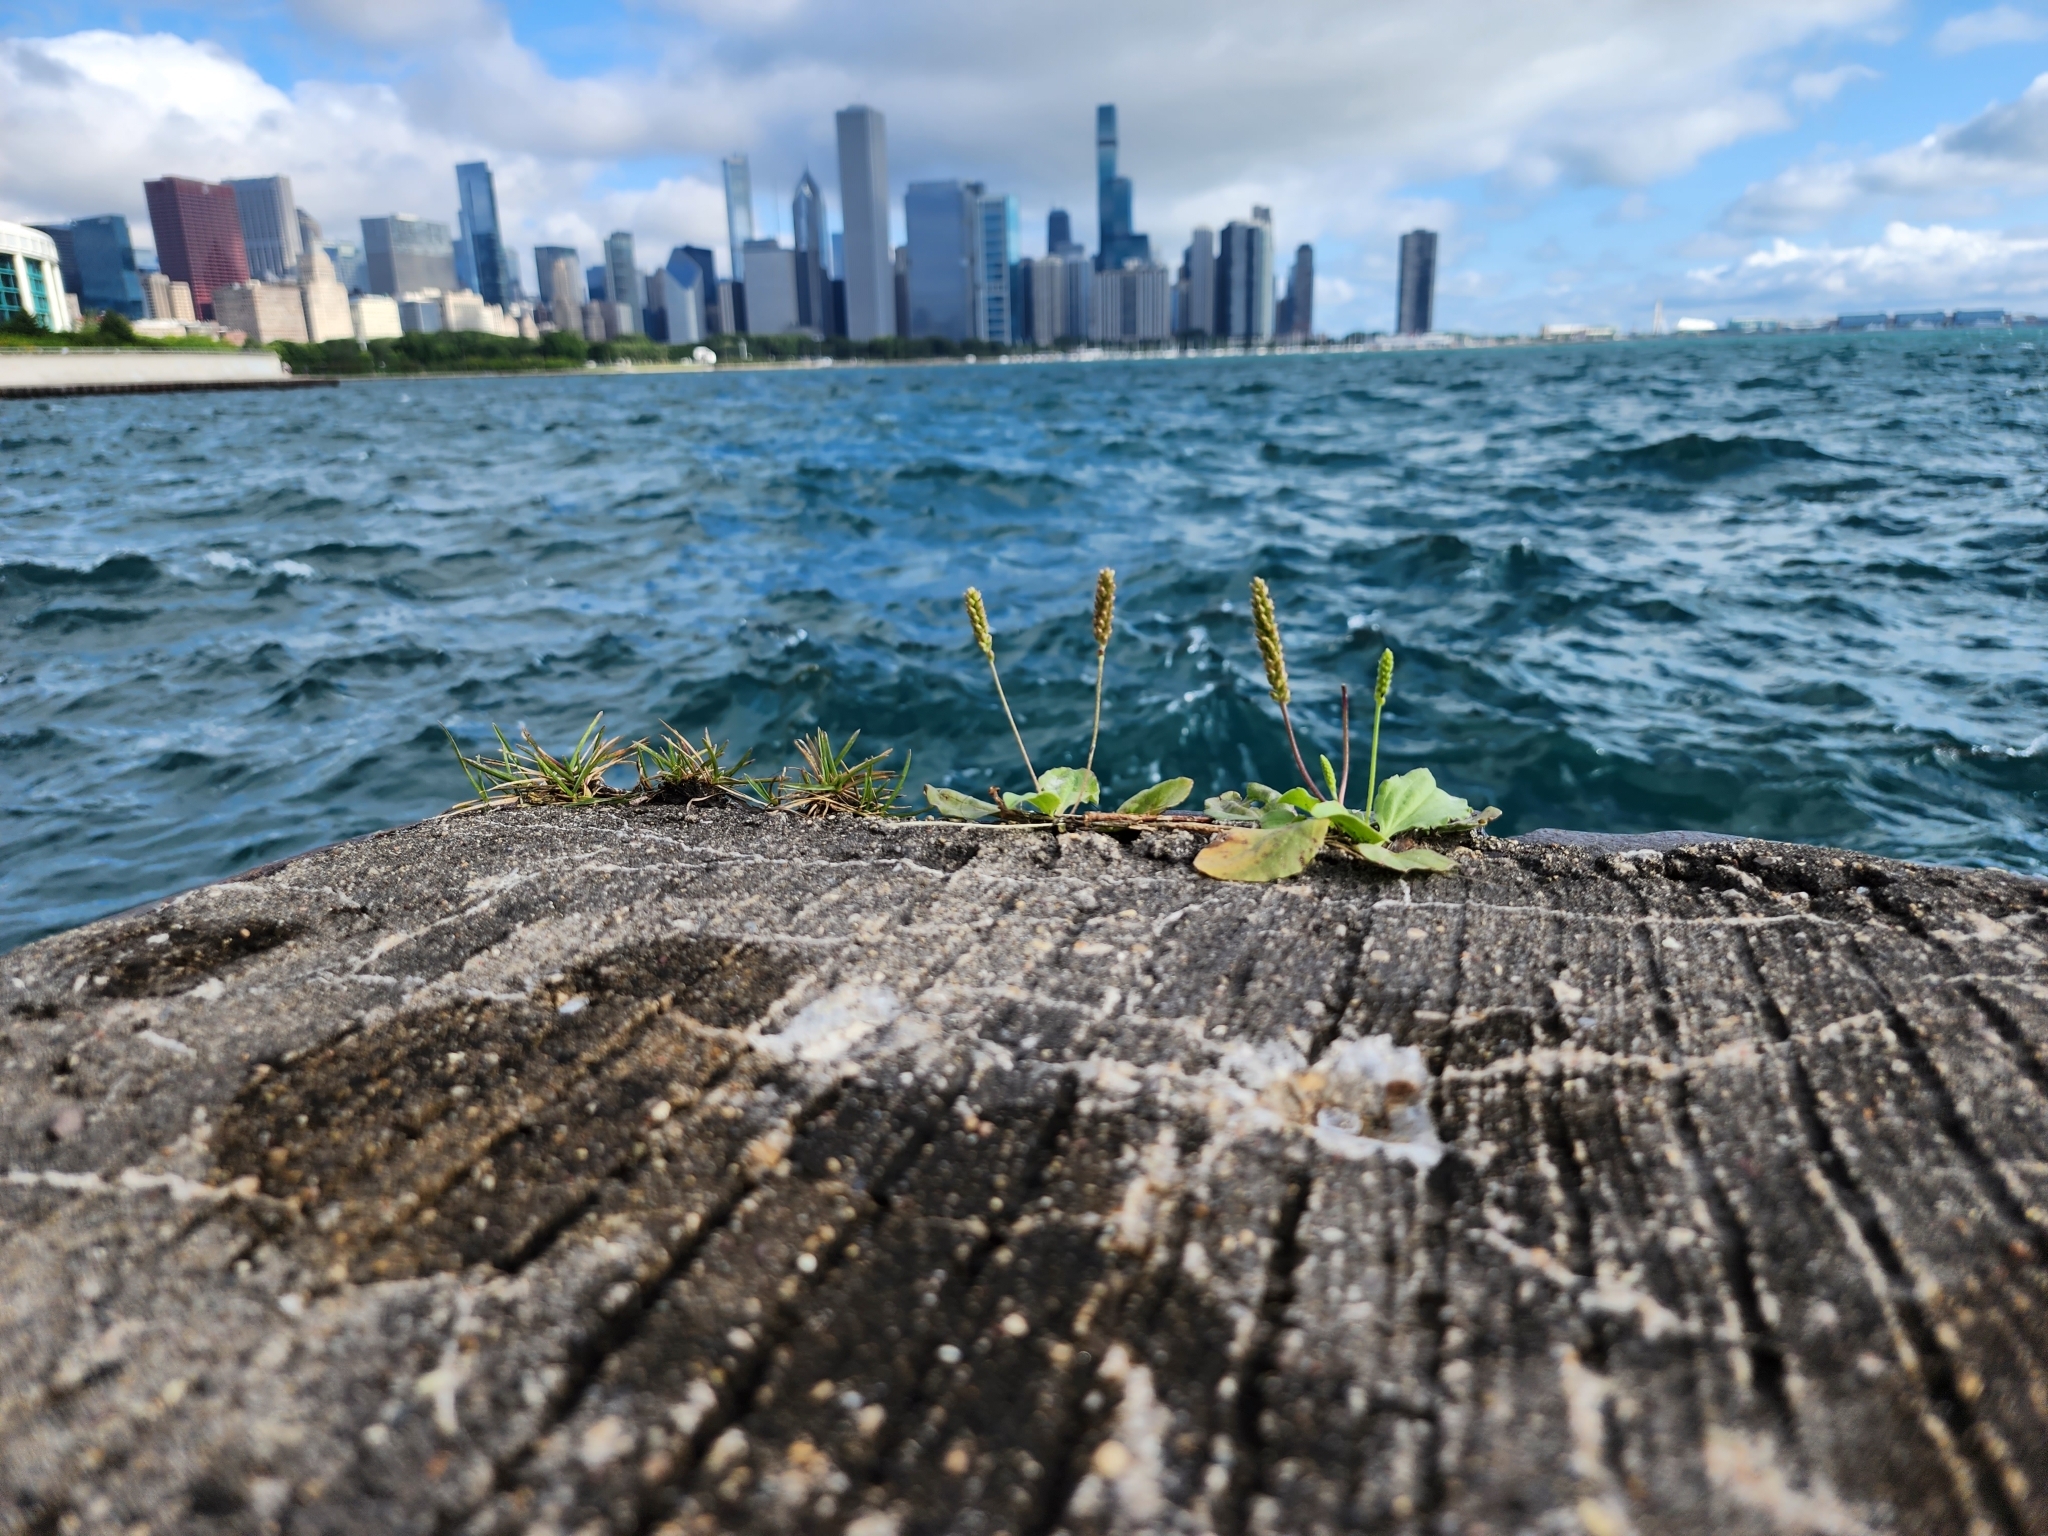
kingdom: Plantae
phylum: Tracheophyta
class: Magnoliopsida
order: Lamiales
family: Plantaginaceae
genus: Plantago
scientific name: Plantago major
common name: Common plantain
